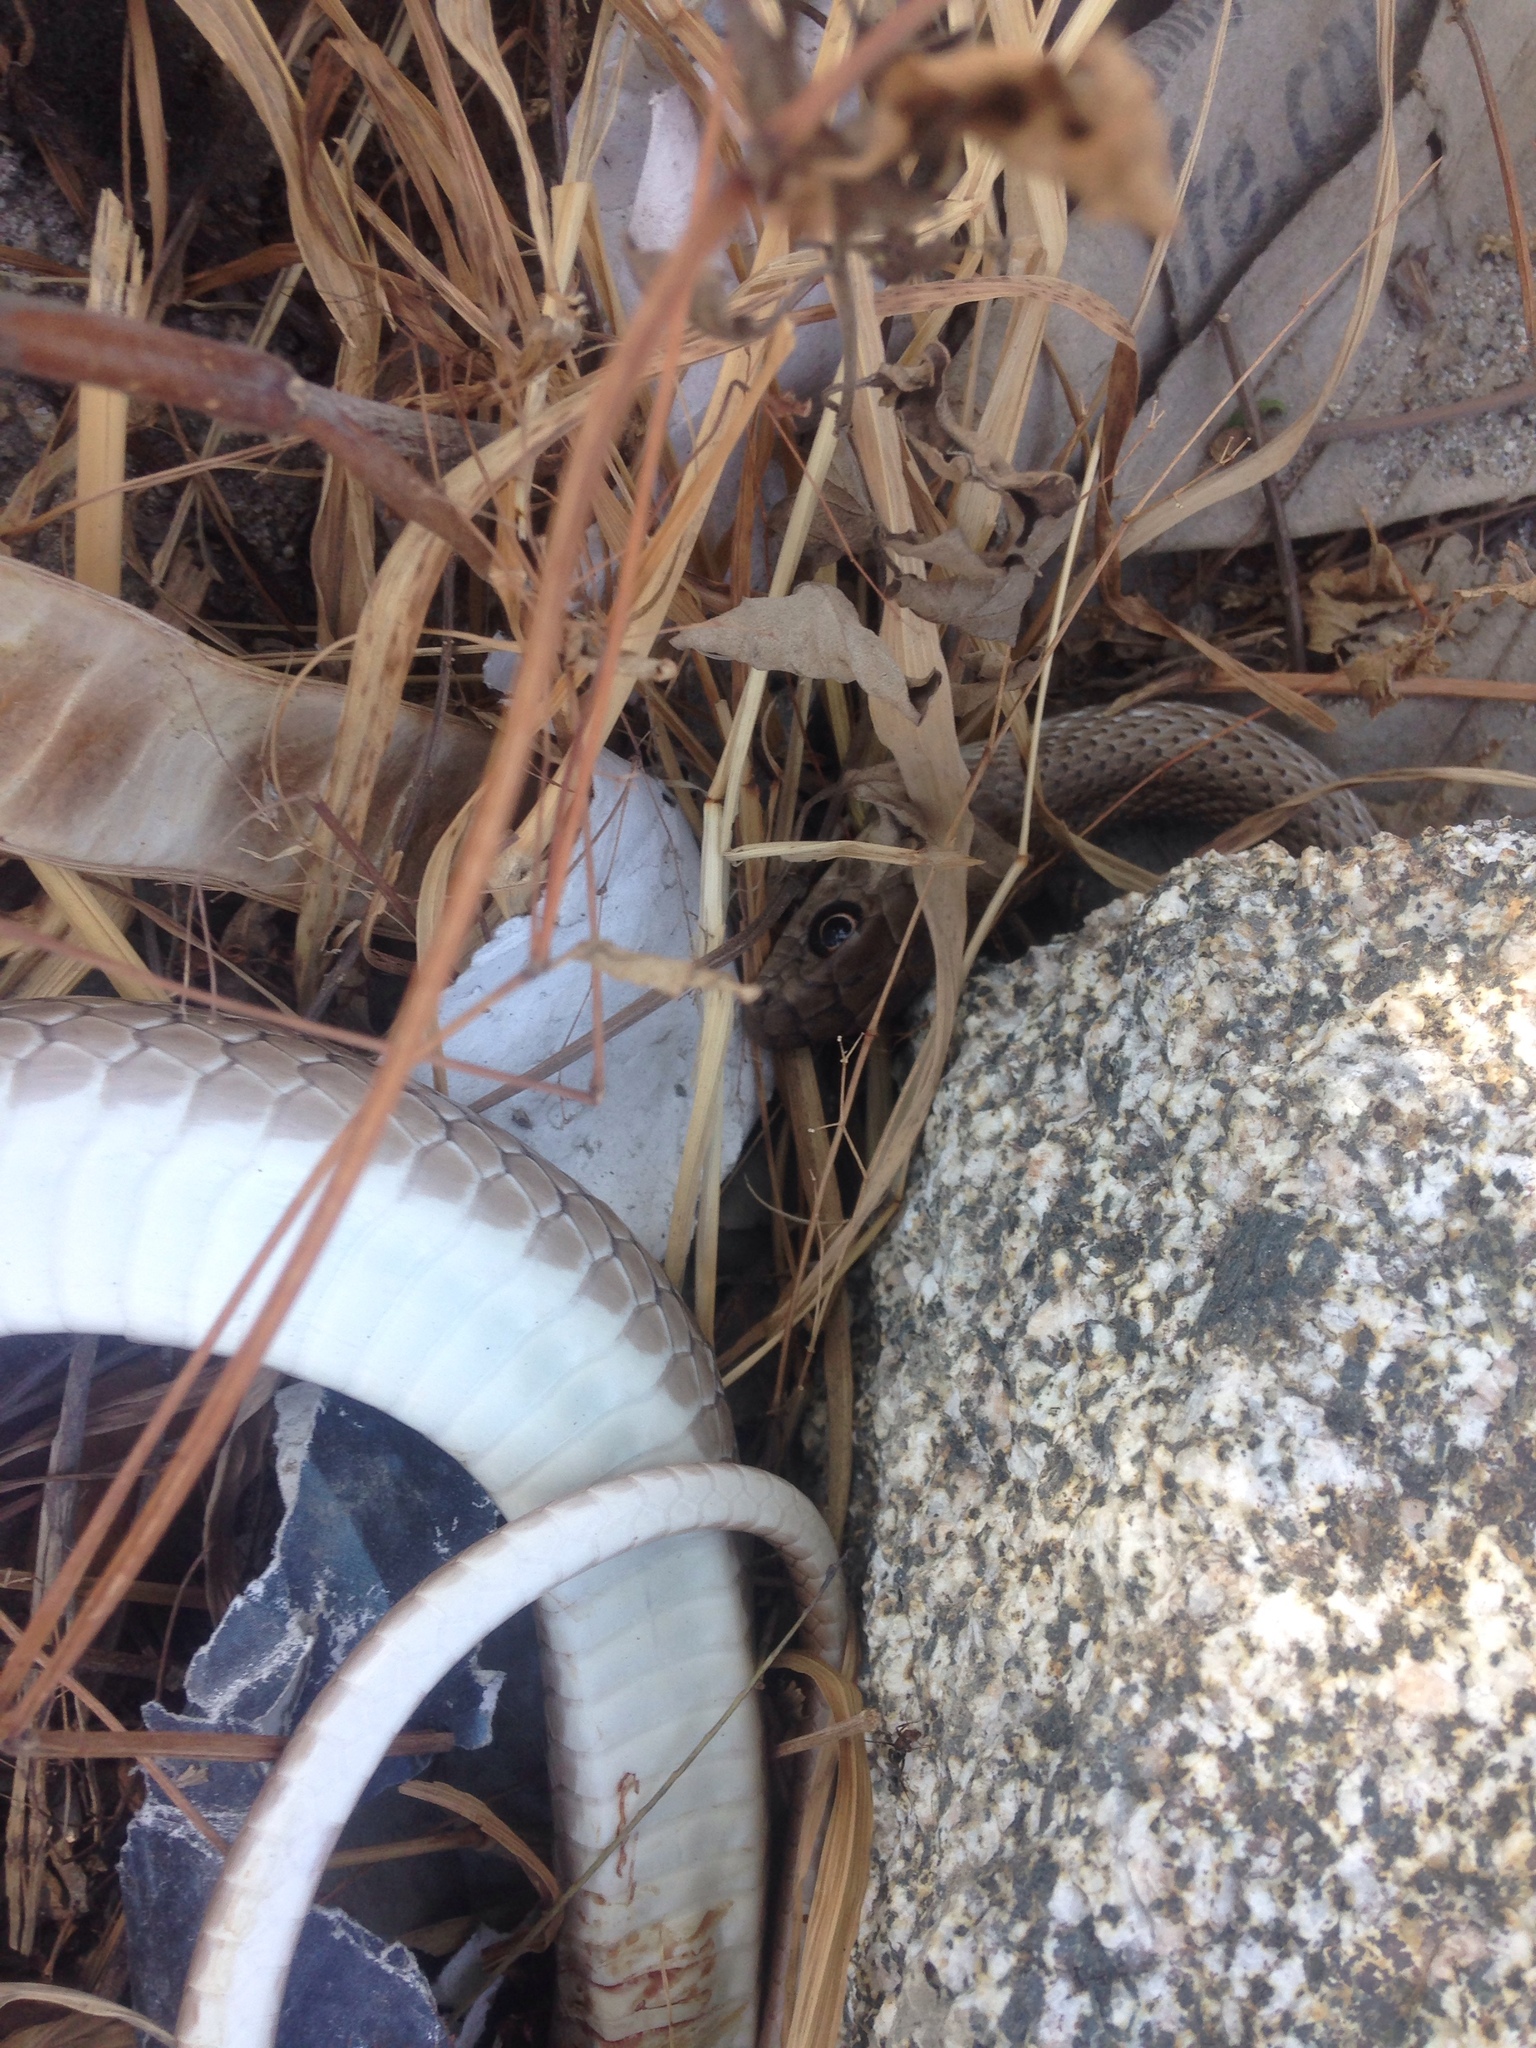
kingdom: Animalia
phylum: Chordata
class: Squamata
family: Colubridae
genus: Masticophis
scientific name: Masticophis mentovarius
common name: Neotropical whip snake
